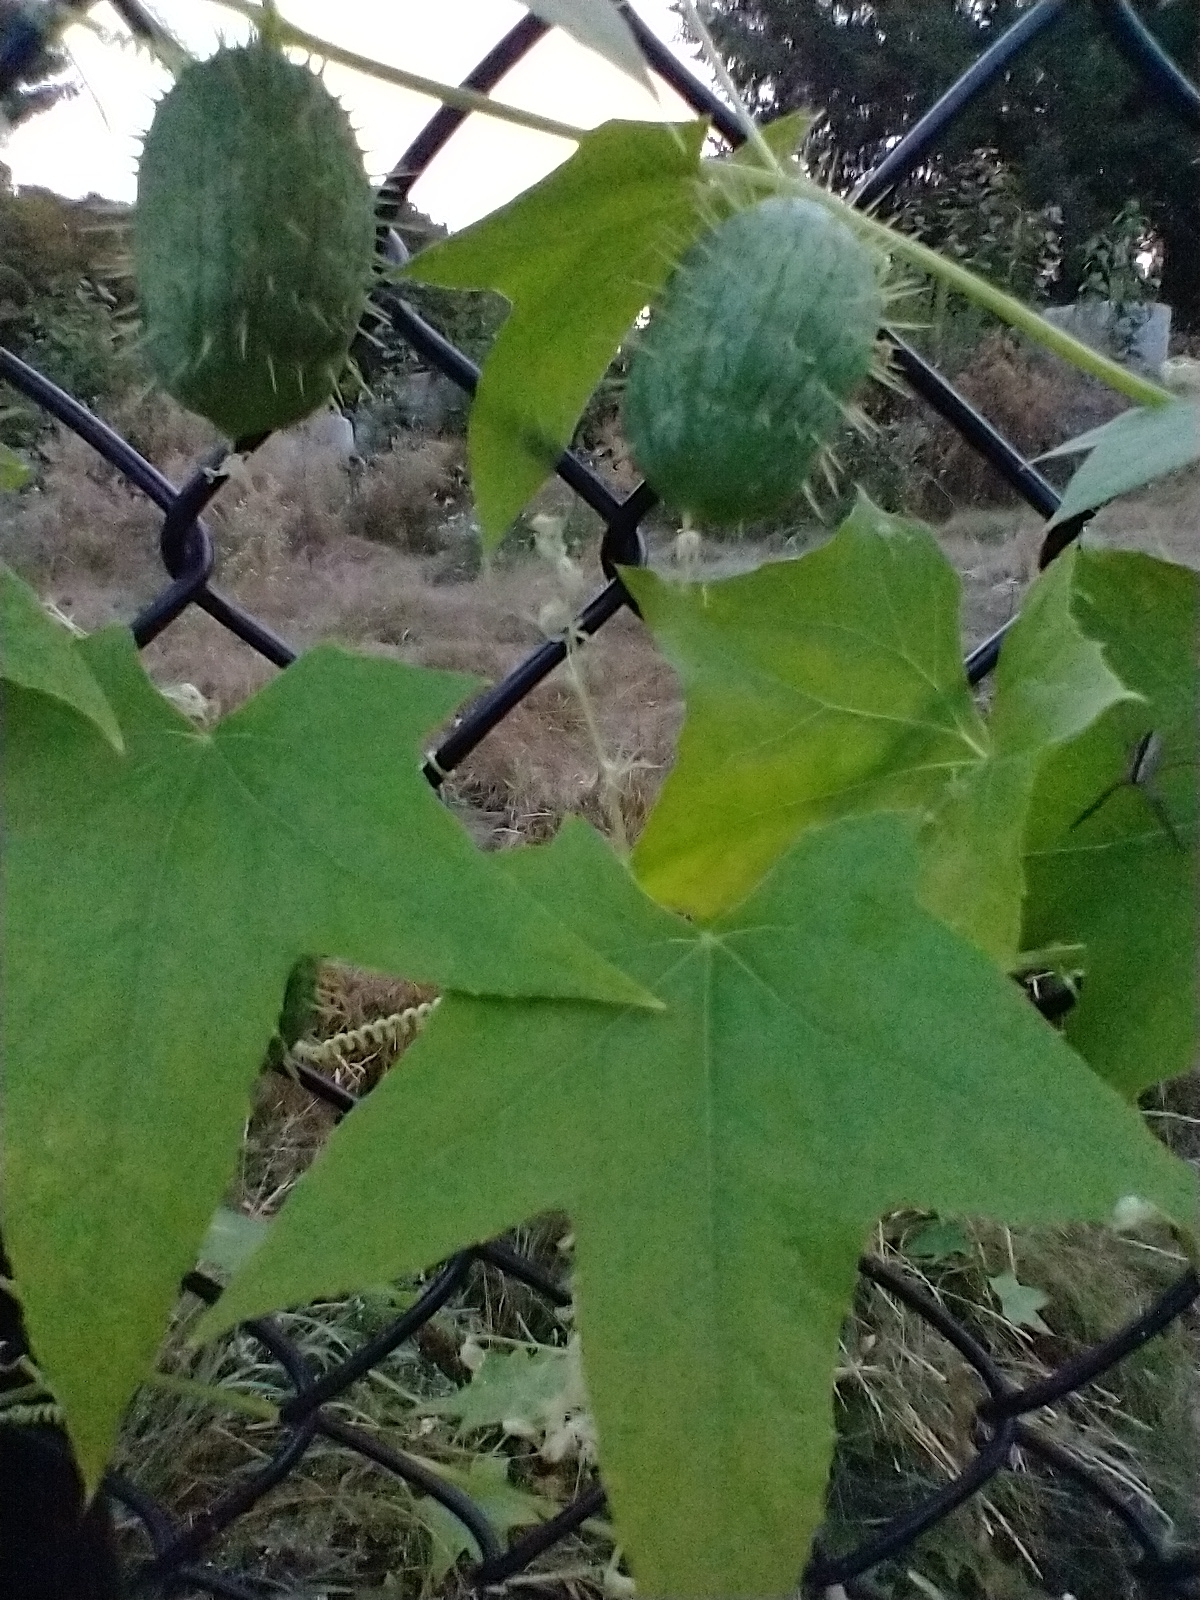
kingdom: Plantae
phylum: Tracheophyta
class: Magnoliopsida
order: Cucurbitales
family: Cucurbitaceae
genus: Echinocystis
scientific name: Echinocystis lobata
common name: Wild cucumber
